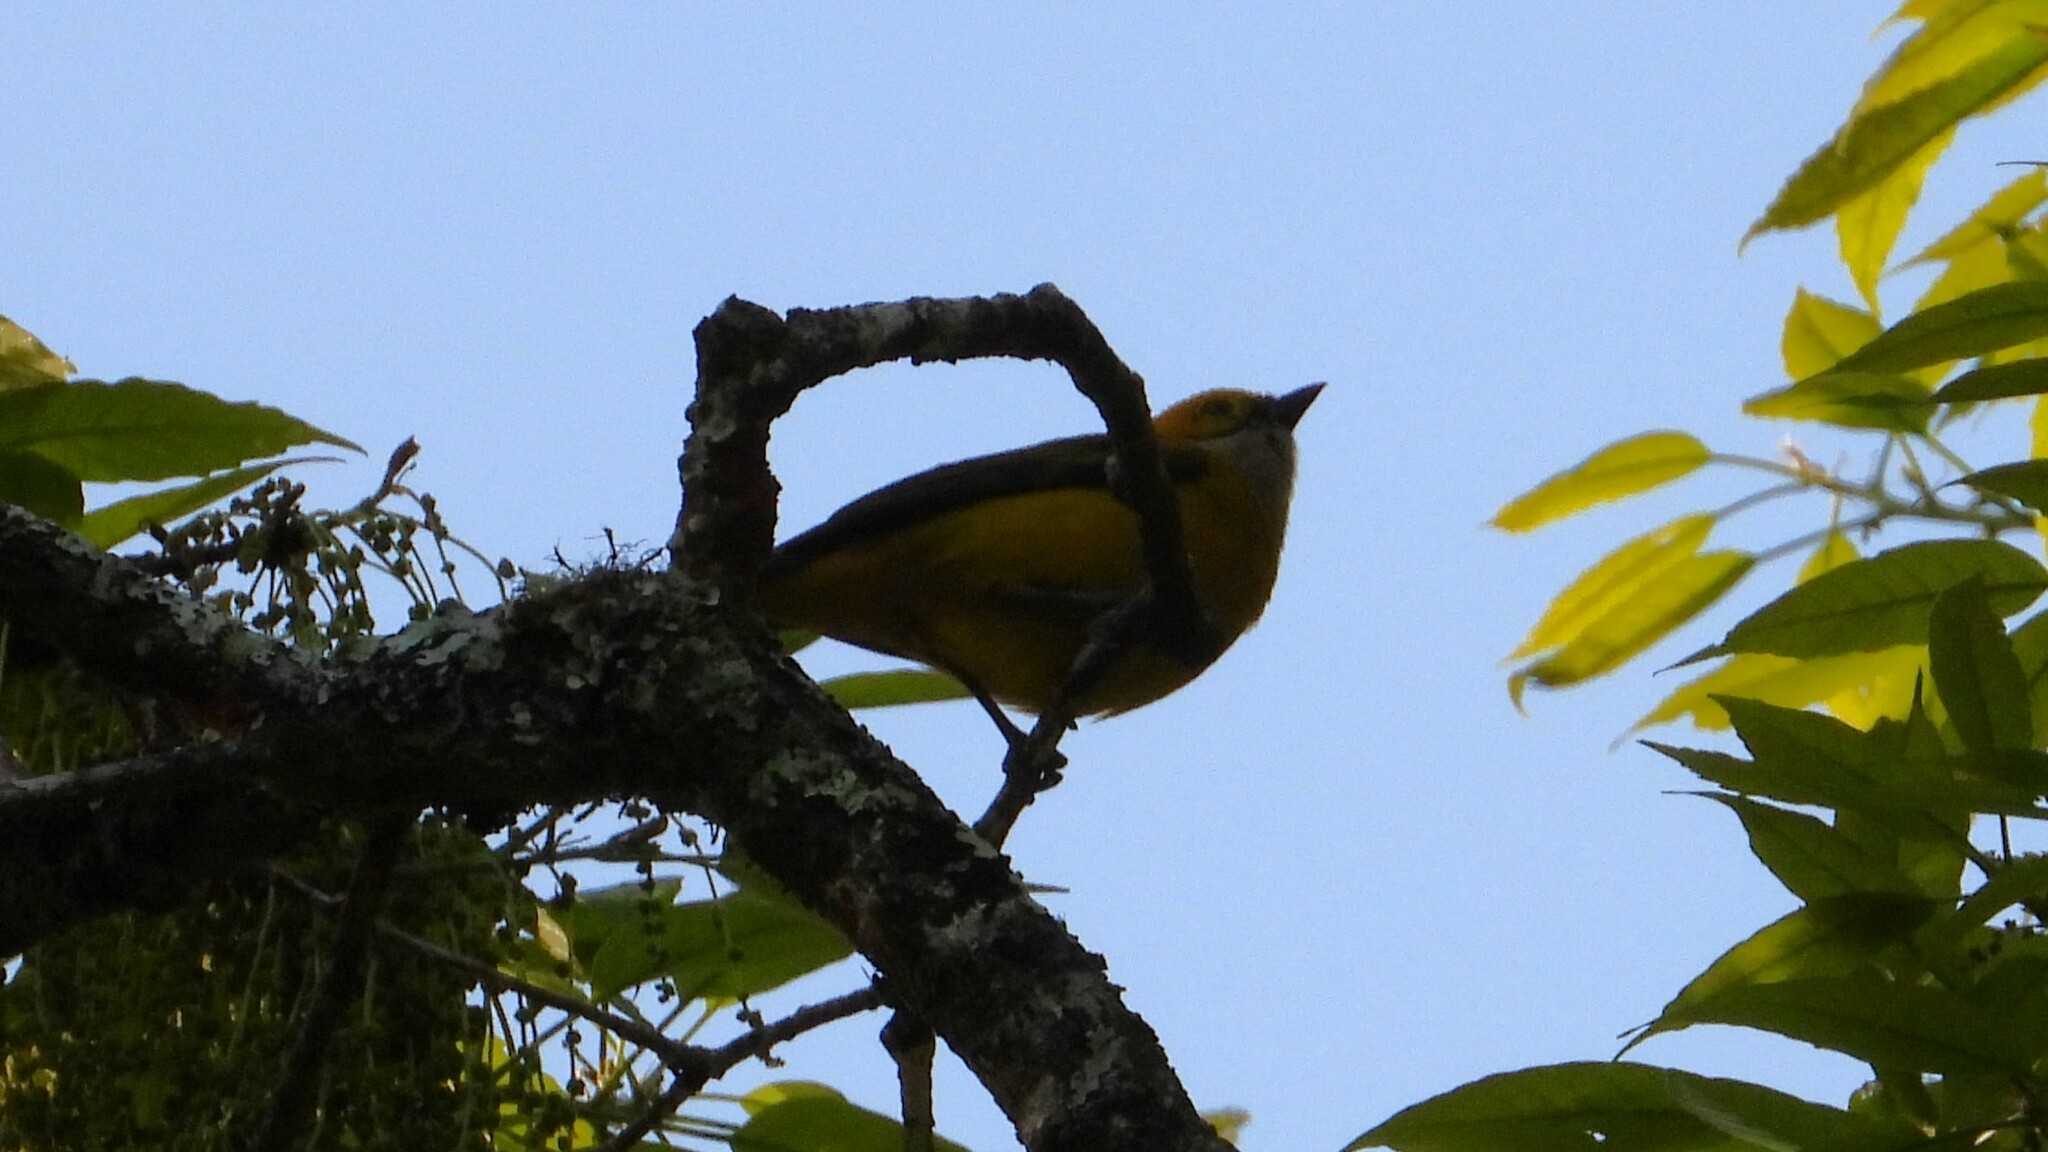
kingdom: Animalia
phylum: Chordata
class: Aves
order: Passeriformes
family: Thraupidae
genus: Tangara
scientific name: Tangara icterocephala
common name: Silver-throated tanager
